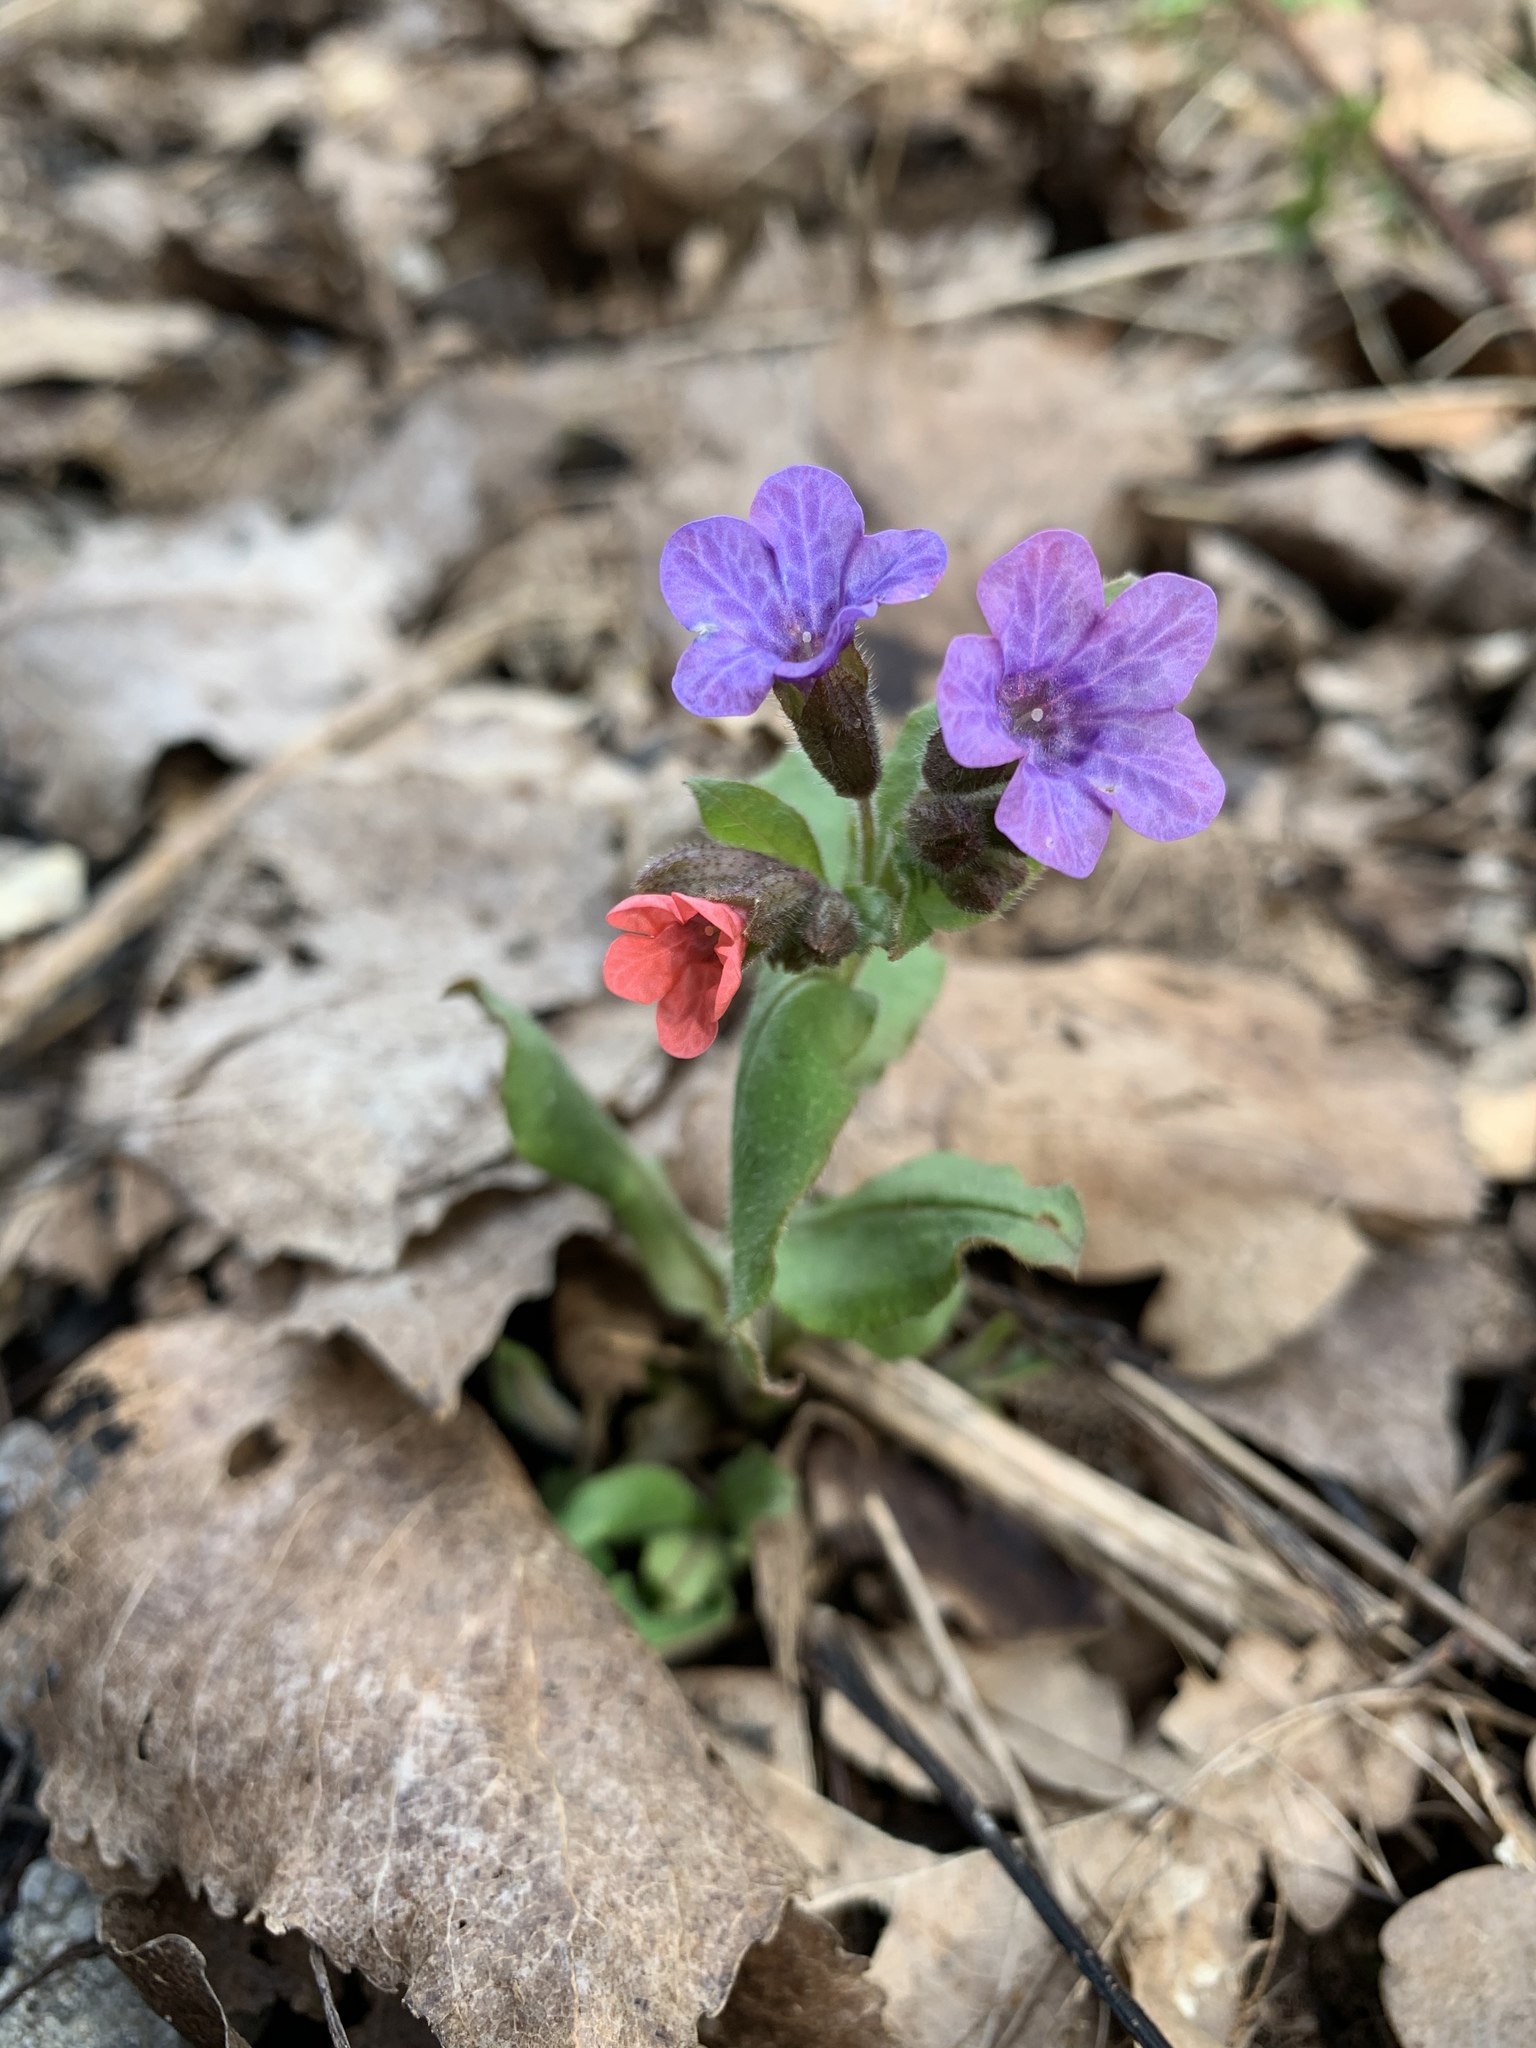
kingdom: Plantae
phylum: Tracheophyta
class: Magnoliopsida
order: Boraginales
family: Boraginaceae
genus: Pulmonaria
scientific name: Pulmonaria obscura
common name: Suffolk lungwort
